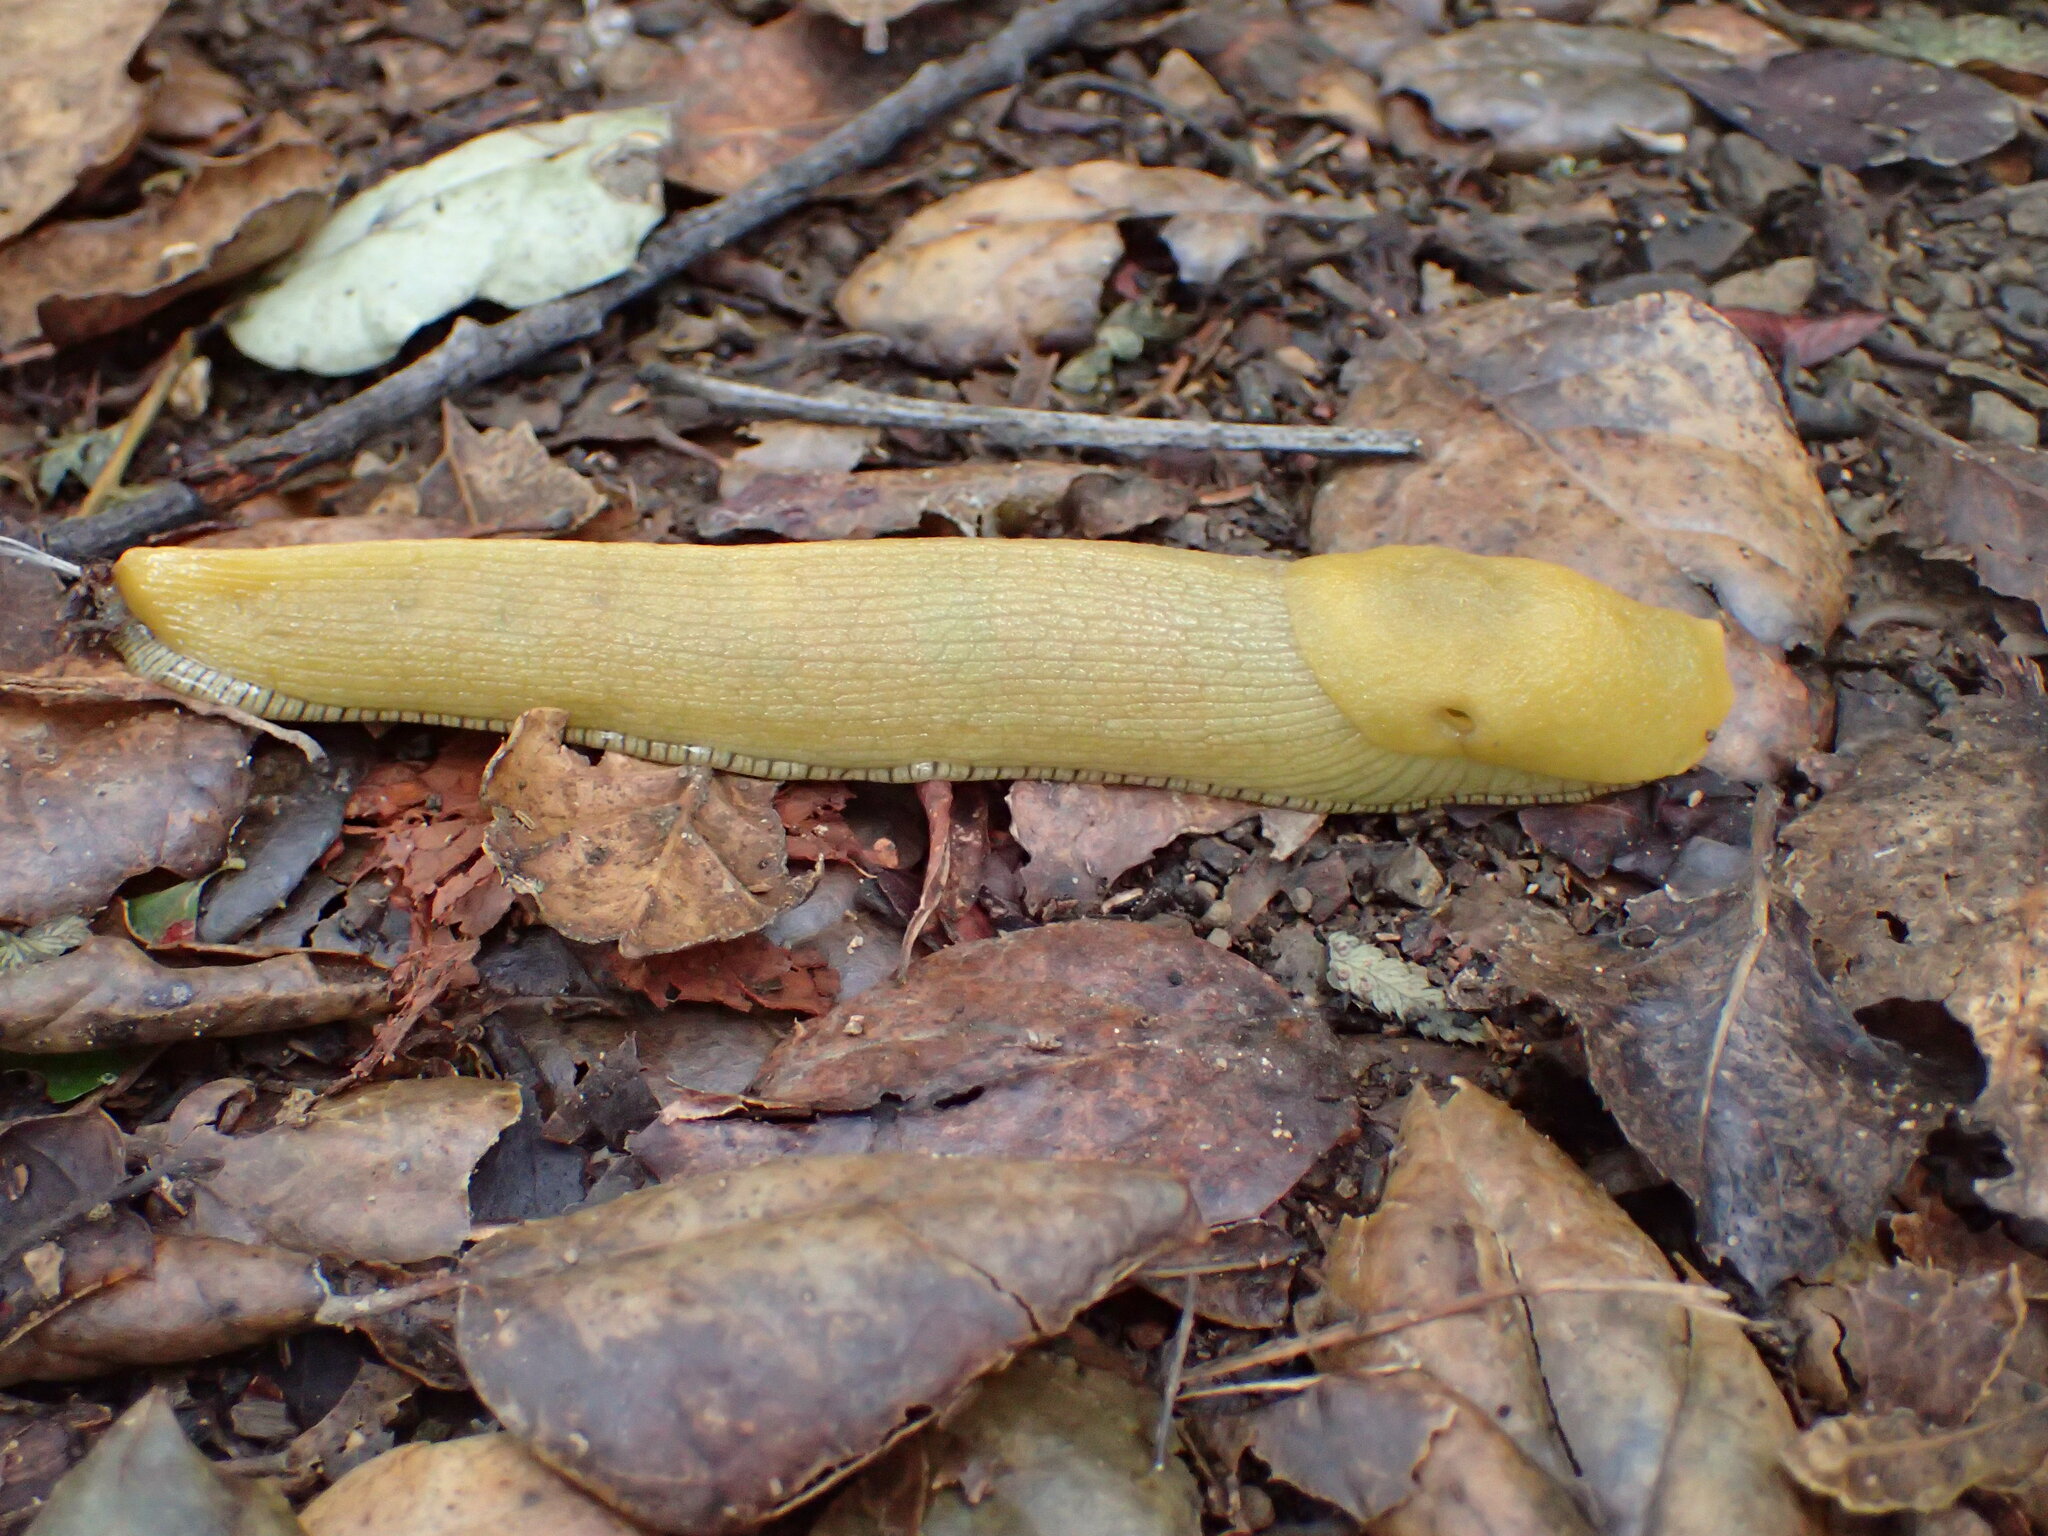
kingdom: Animalia
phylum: Mollusca
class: Gastropoda
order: Stylommatophora
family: Ariolimacidae
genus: Ariolimax
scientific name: Ariolimax stramineus
